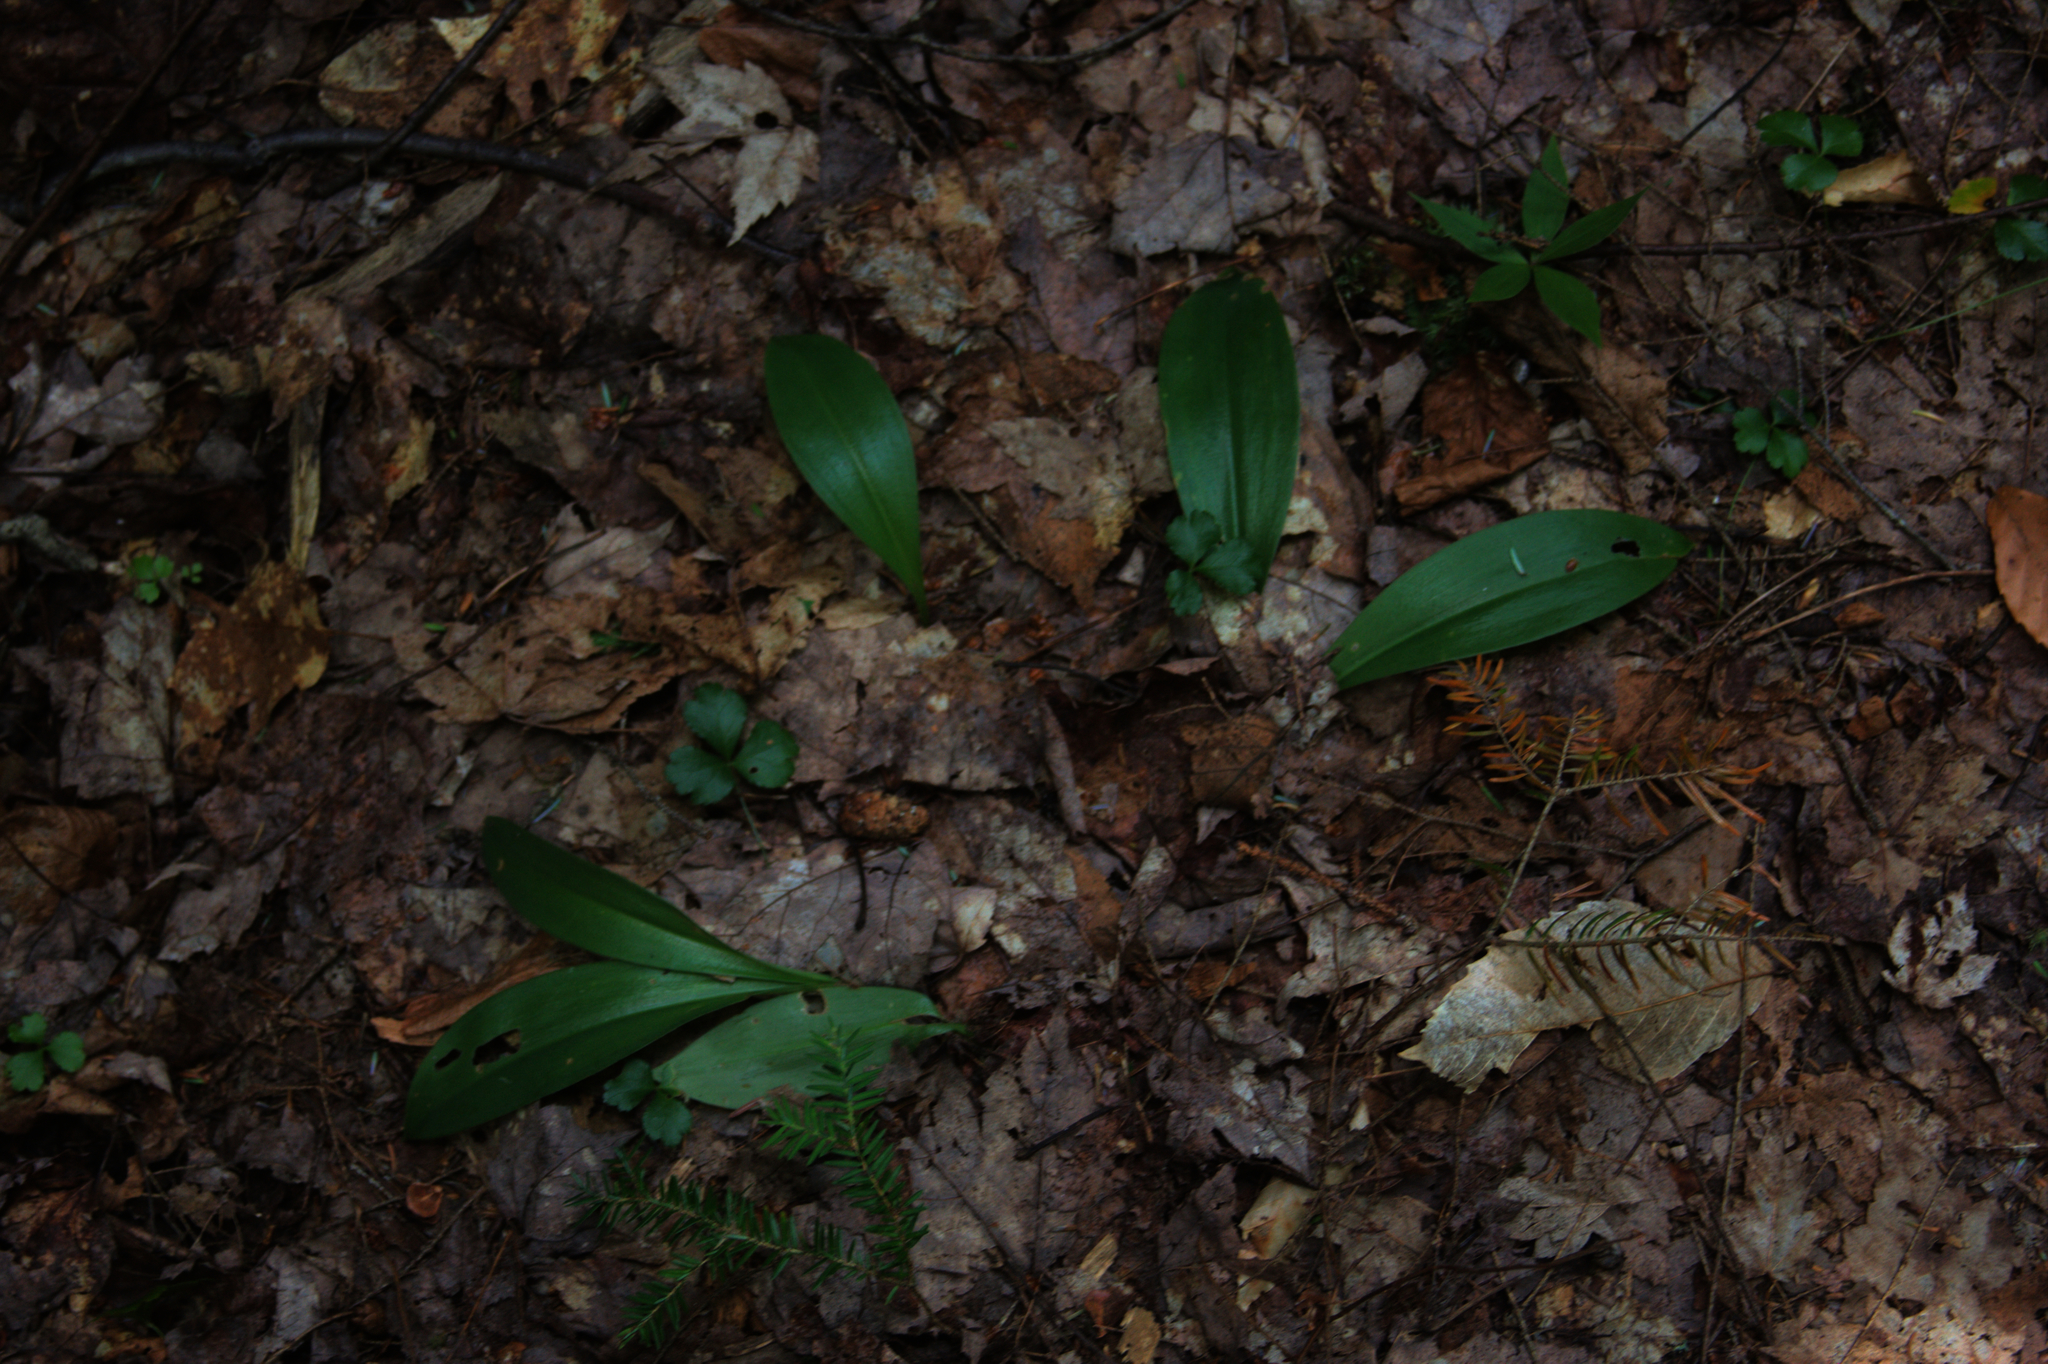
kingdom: Plantae
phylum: Tracheophyta
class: Liliopsida
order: Liliales
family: Liliaceae
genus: Clintonia
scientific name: Clintonia borealis
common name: Yellow clintonia
